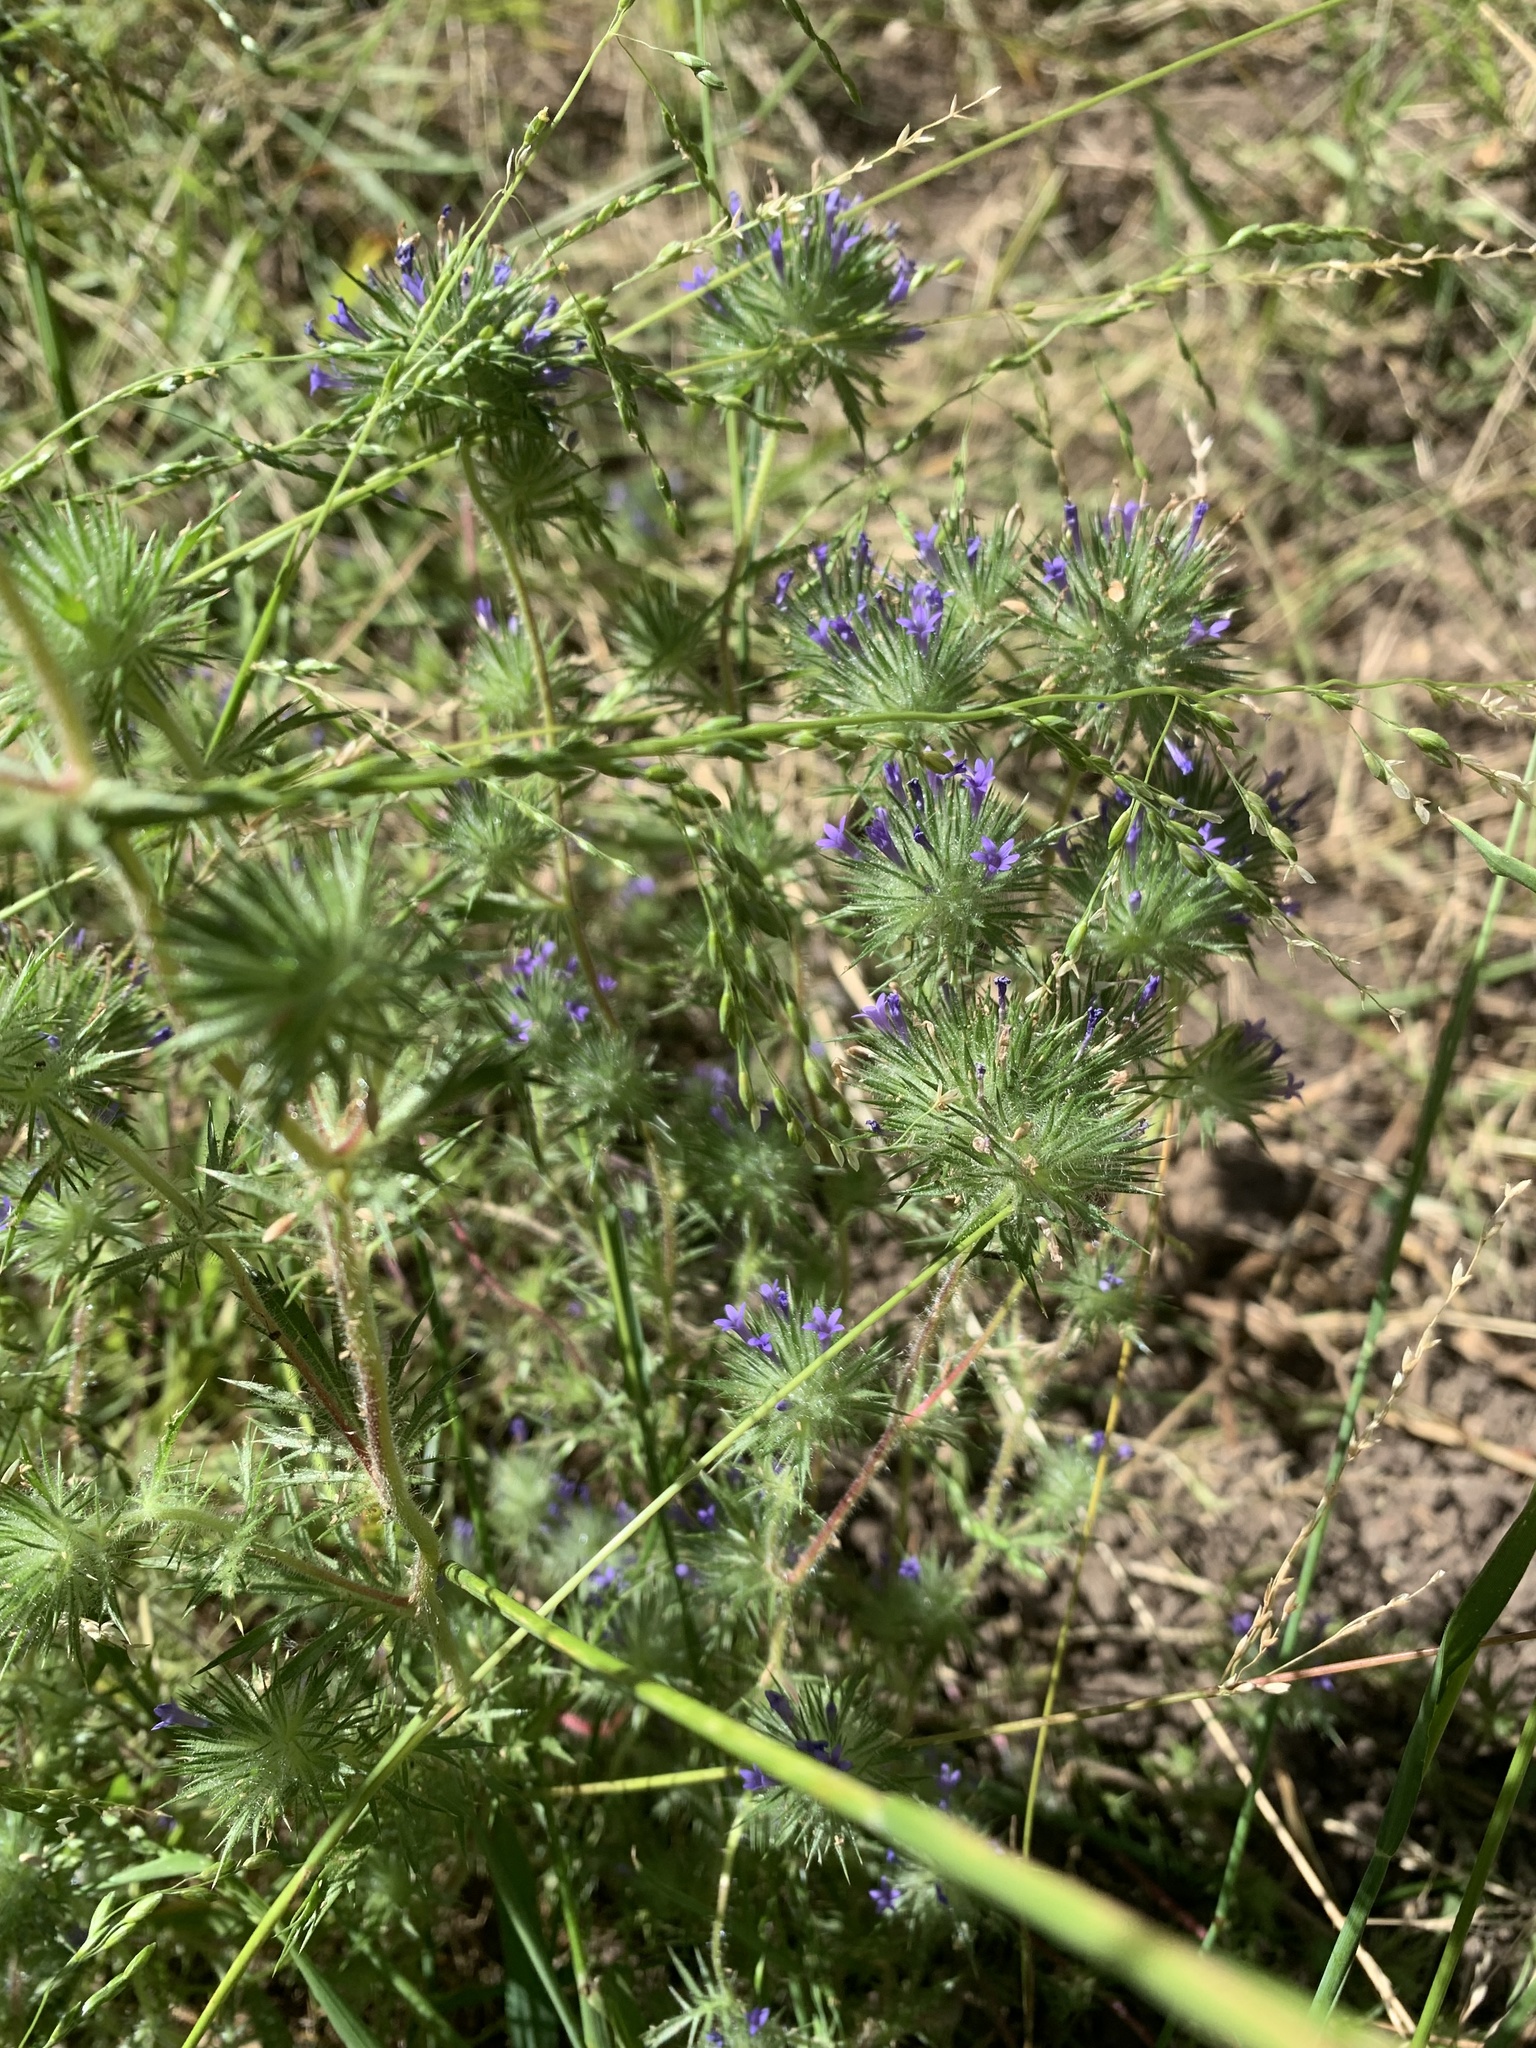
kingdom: Plantae
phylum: Tracheophyta
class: Magnoliopsida
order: Ericales
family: Polemoniaceae
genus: Navarretia
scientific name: Navarretia squarrosa
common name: Skunkweed
